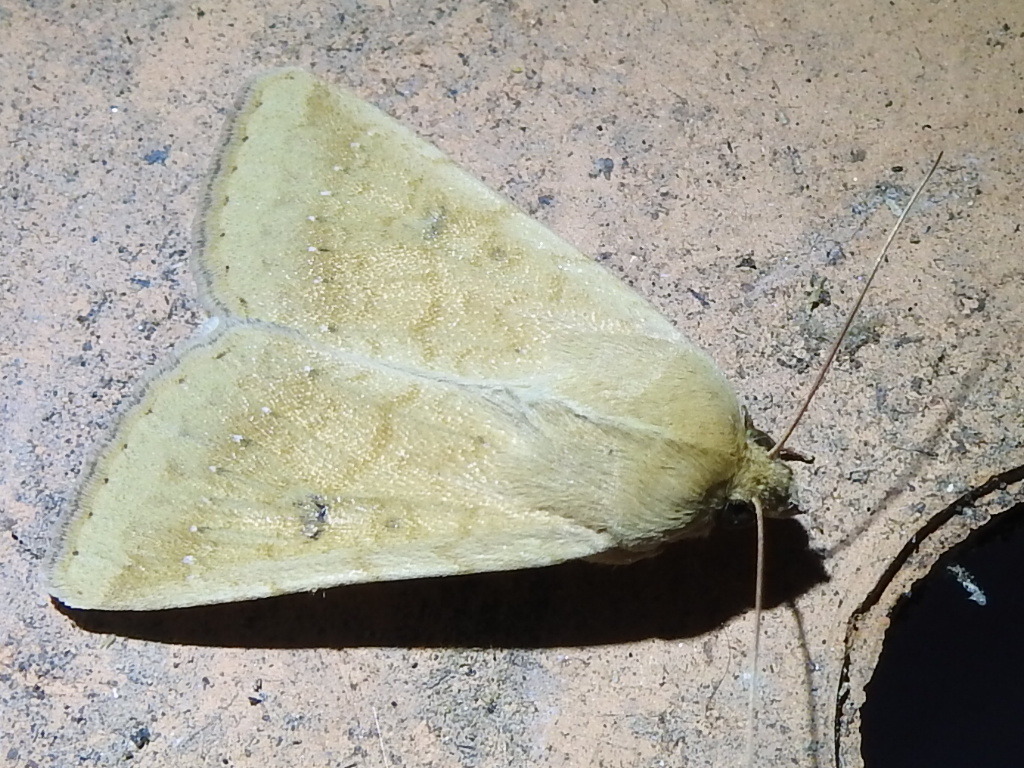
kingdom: Animalia
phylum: Arthropoda
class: Insecta
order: Lepidoptera
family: Noctuidae
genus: Helicoverpa
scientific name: Helicoverpa zea
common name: Bollworm
